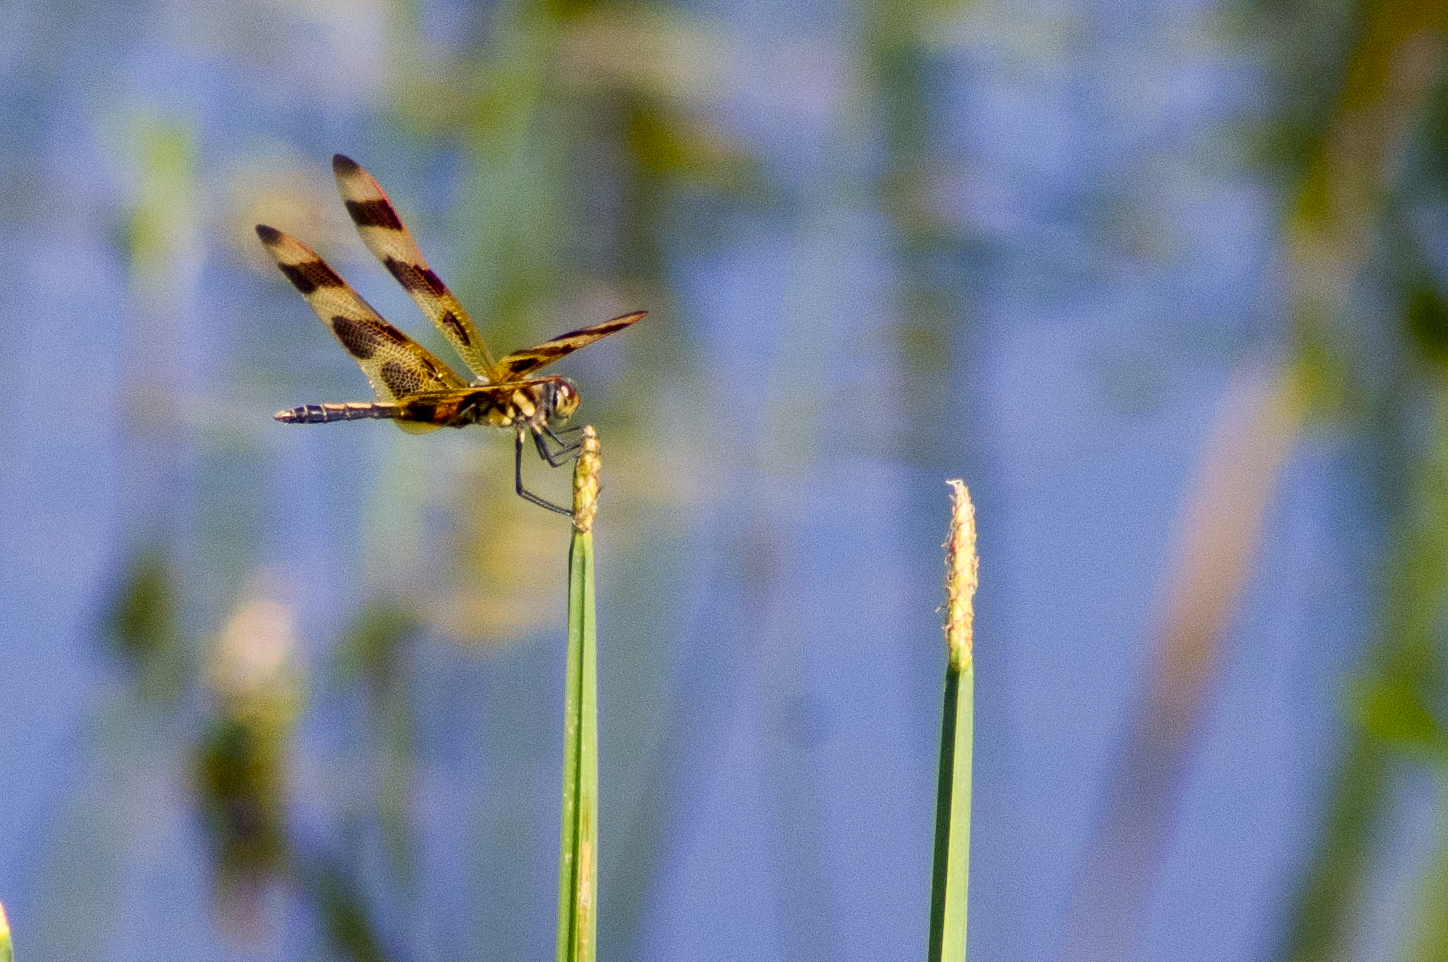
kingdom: Animalia
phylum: Arthropoda
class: Insecta
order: Odonata
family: Libellulidae
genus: Celithemis
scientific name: Celithemis eponina
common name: Halloween pennant
